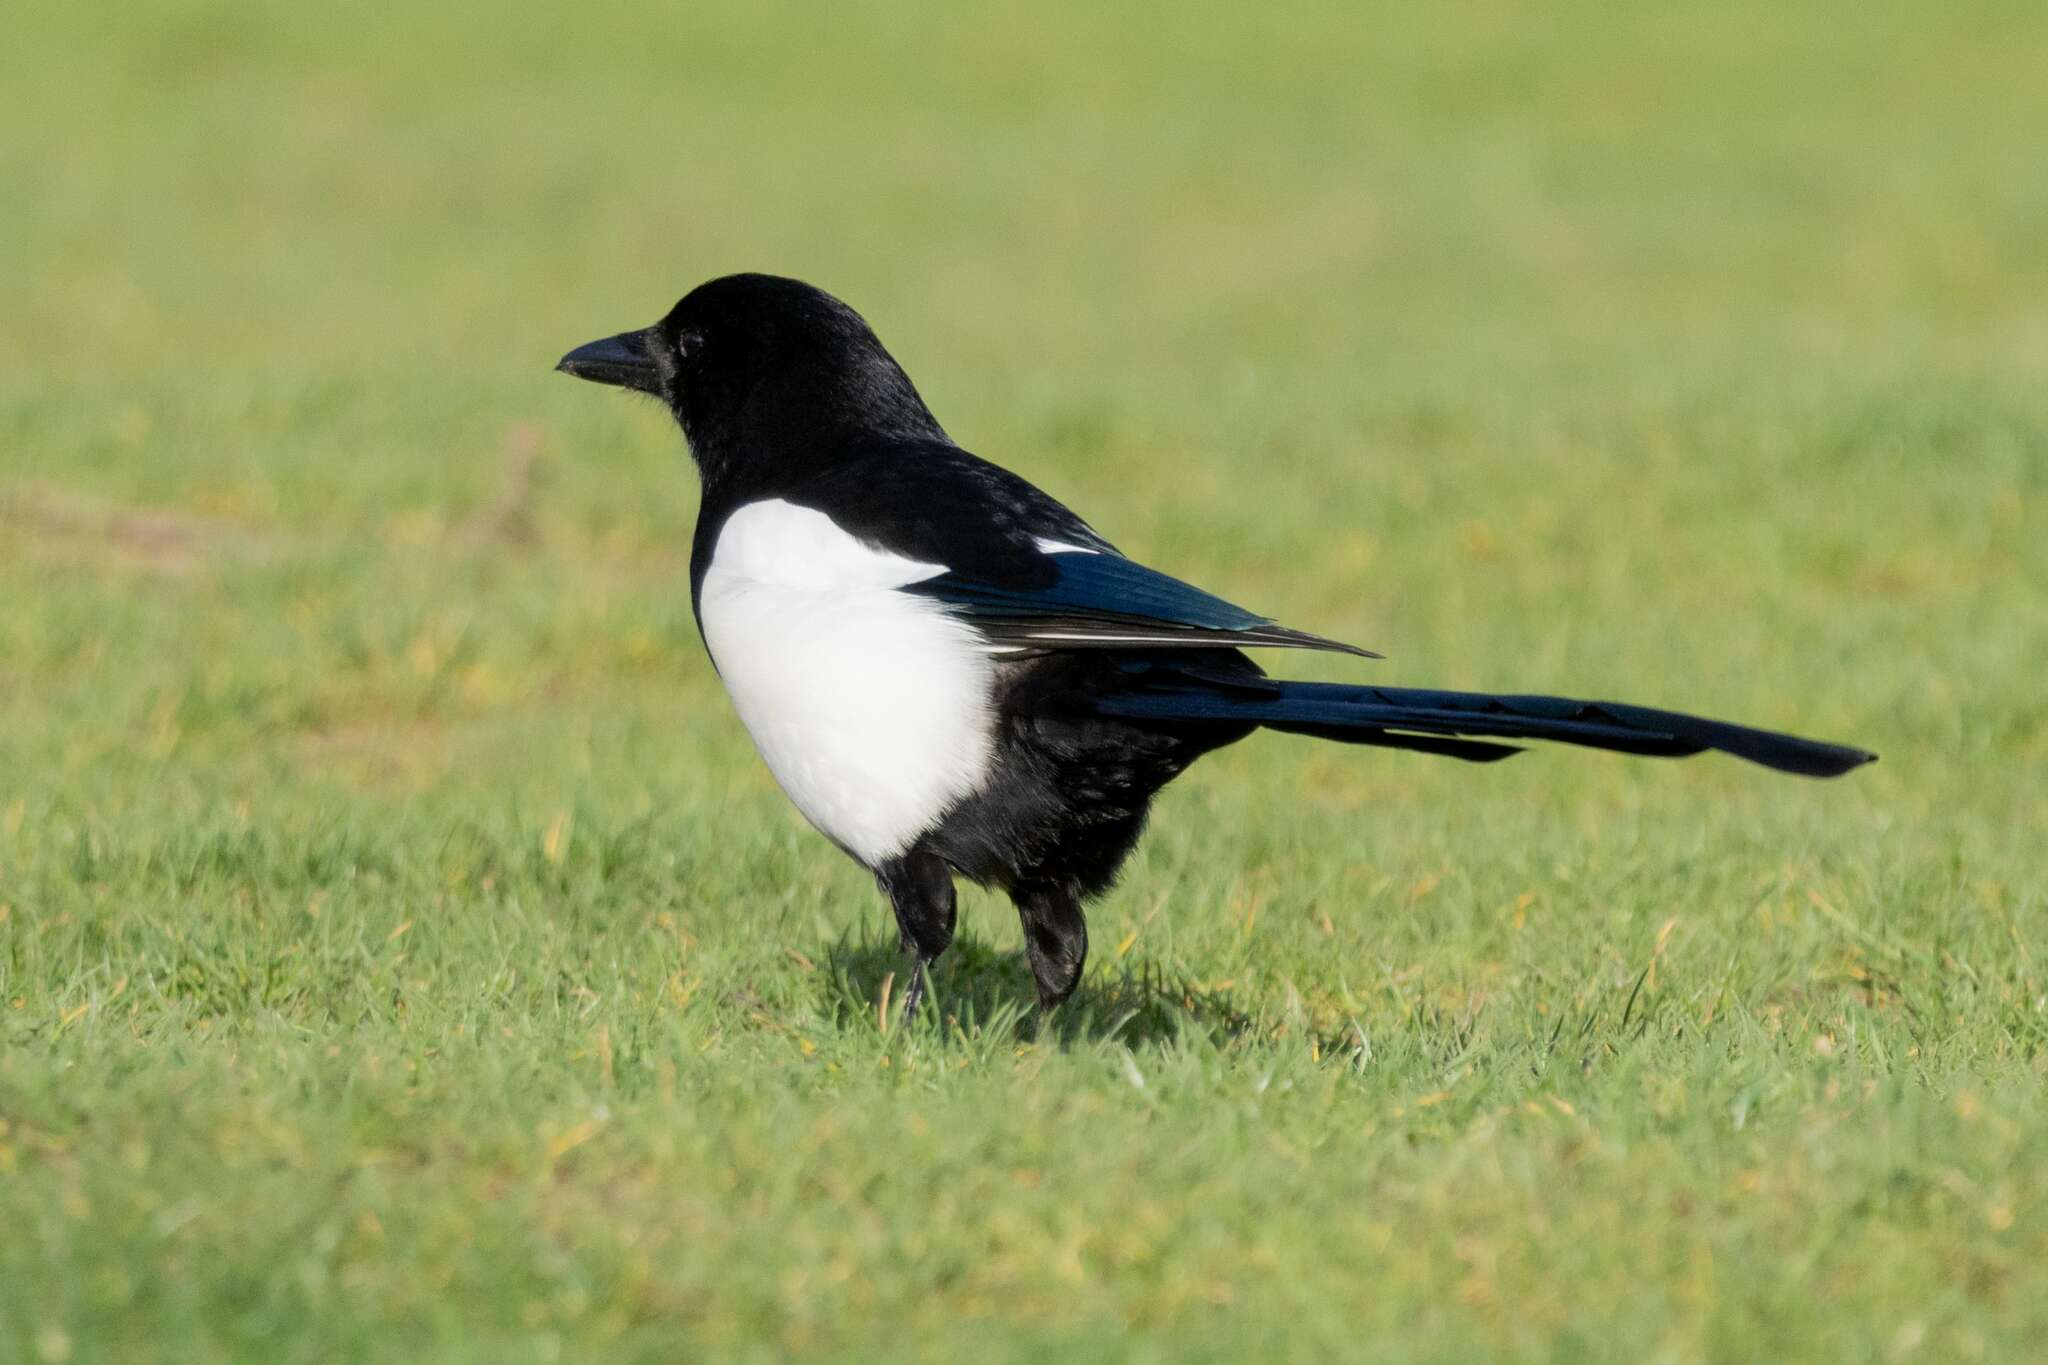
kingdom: Animalia
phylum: Chordata
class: Aves
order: Passeriformes
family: Corvidae
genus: Pica
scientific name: Pica pica
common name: Eurasian magpie
